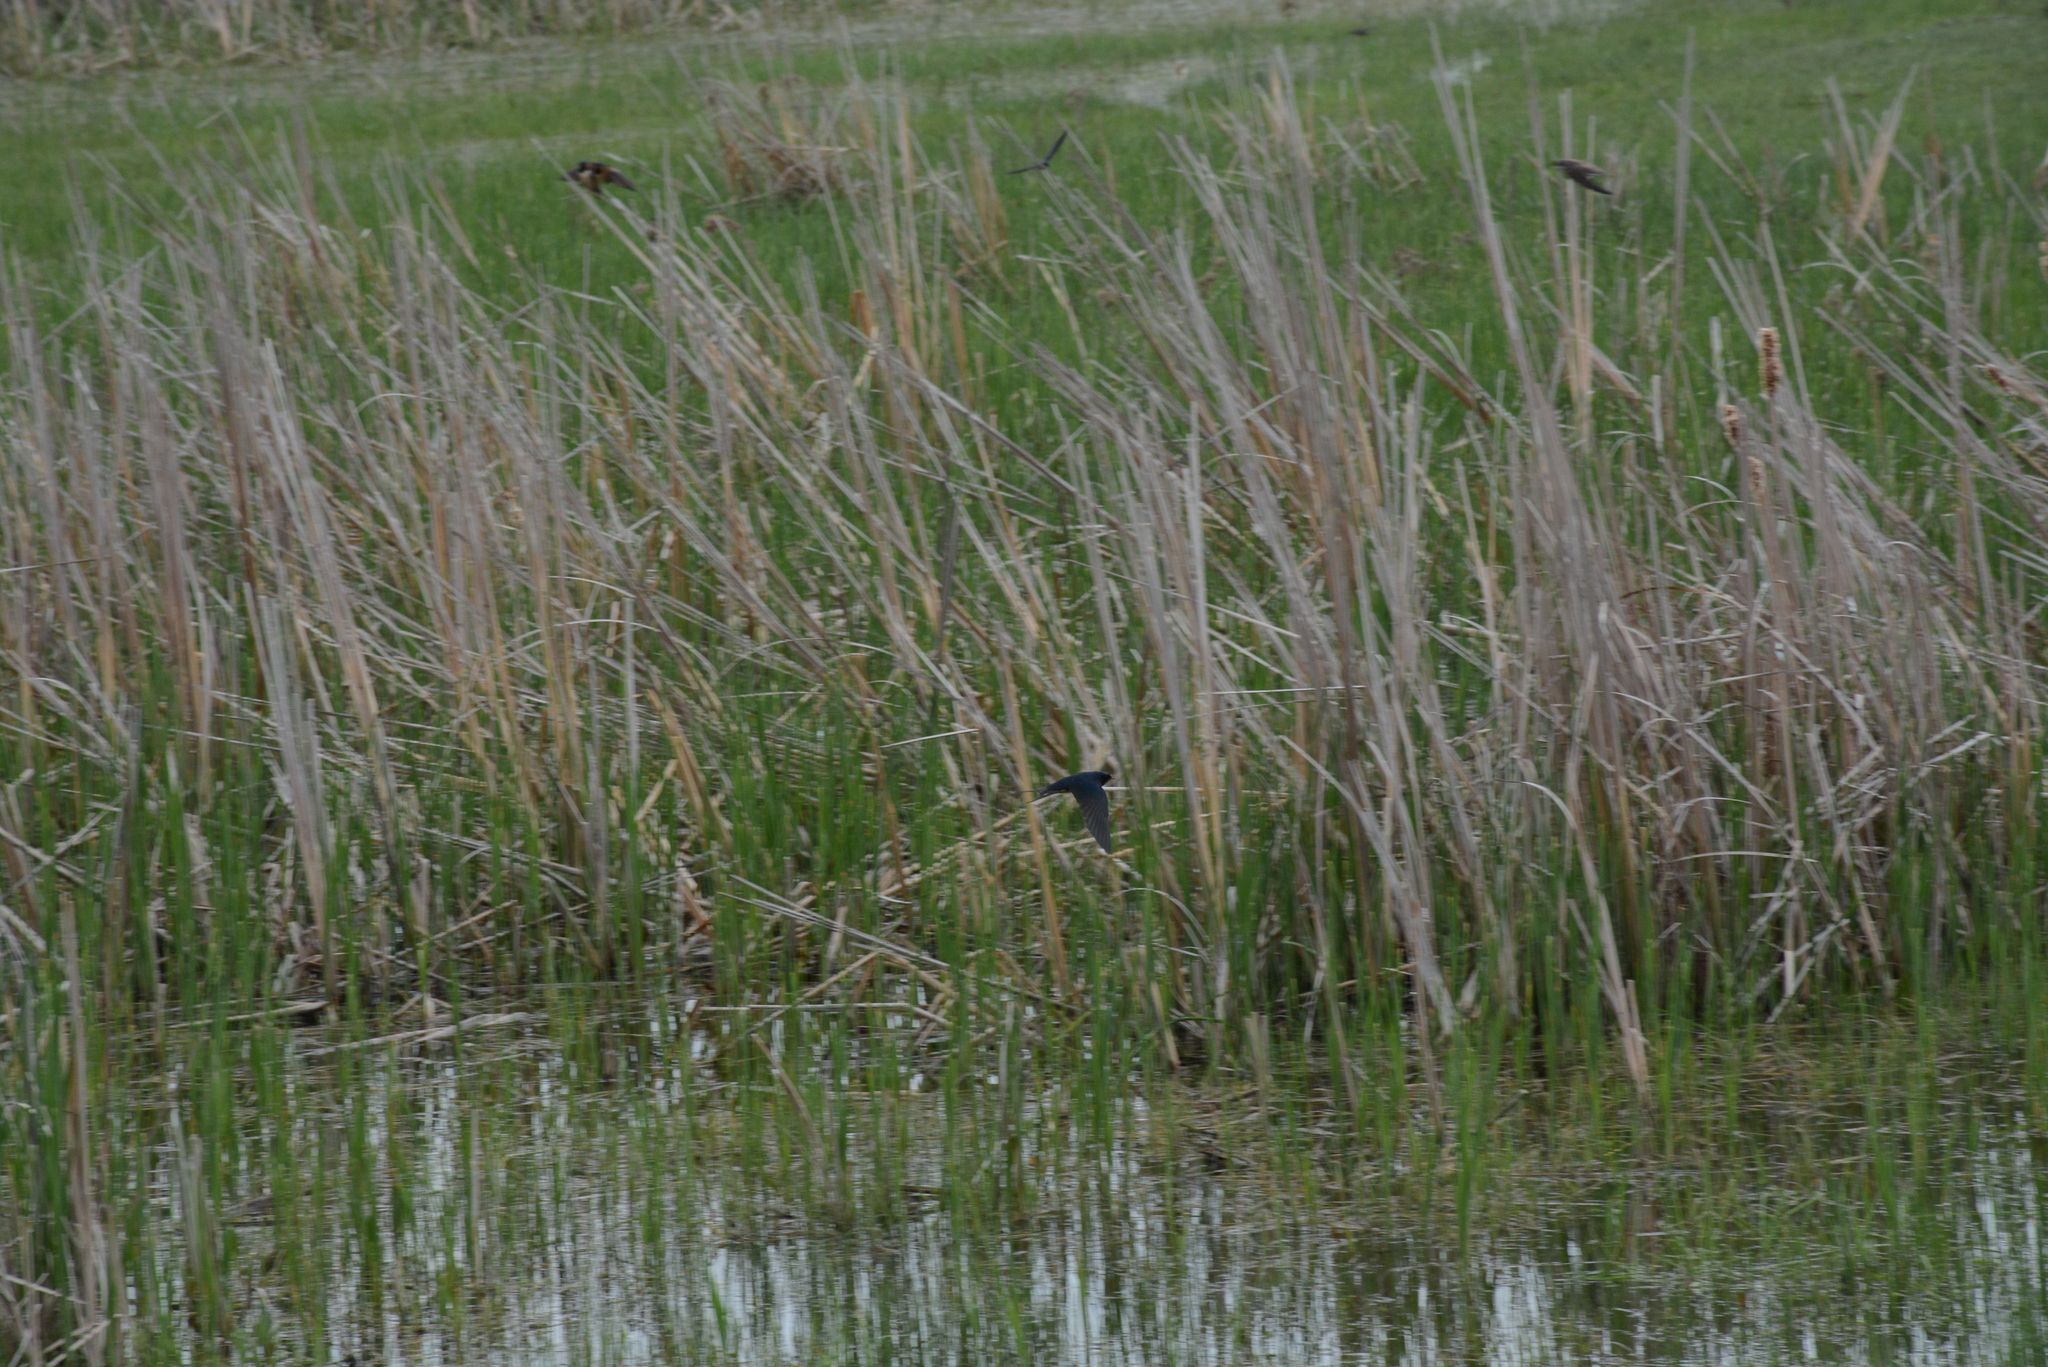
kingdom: Animalia
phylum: Chordata
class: Aves
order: Passeriformes
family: Hirundinidae
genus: Hirundo
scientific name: Hirundo rustica
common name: Barn swallow
